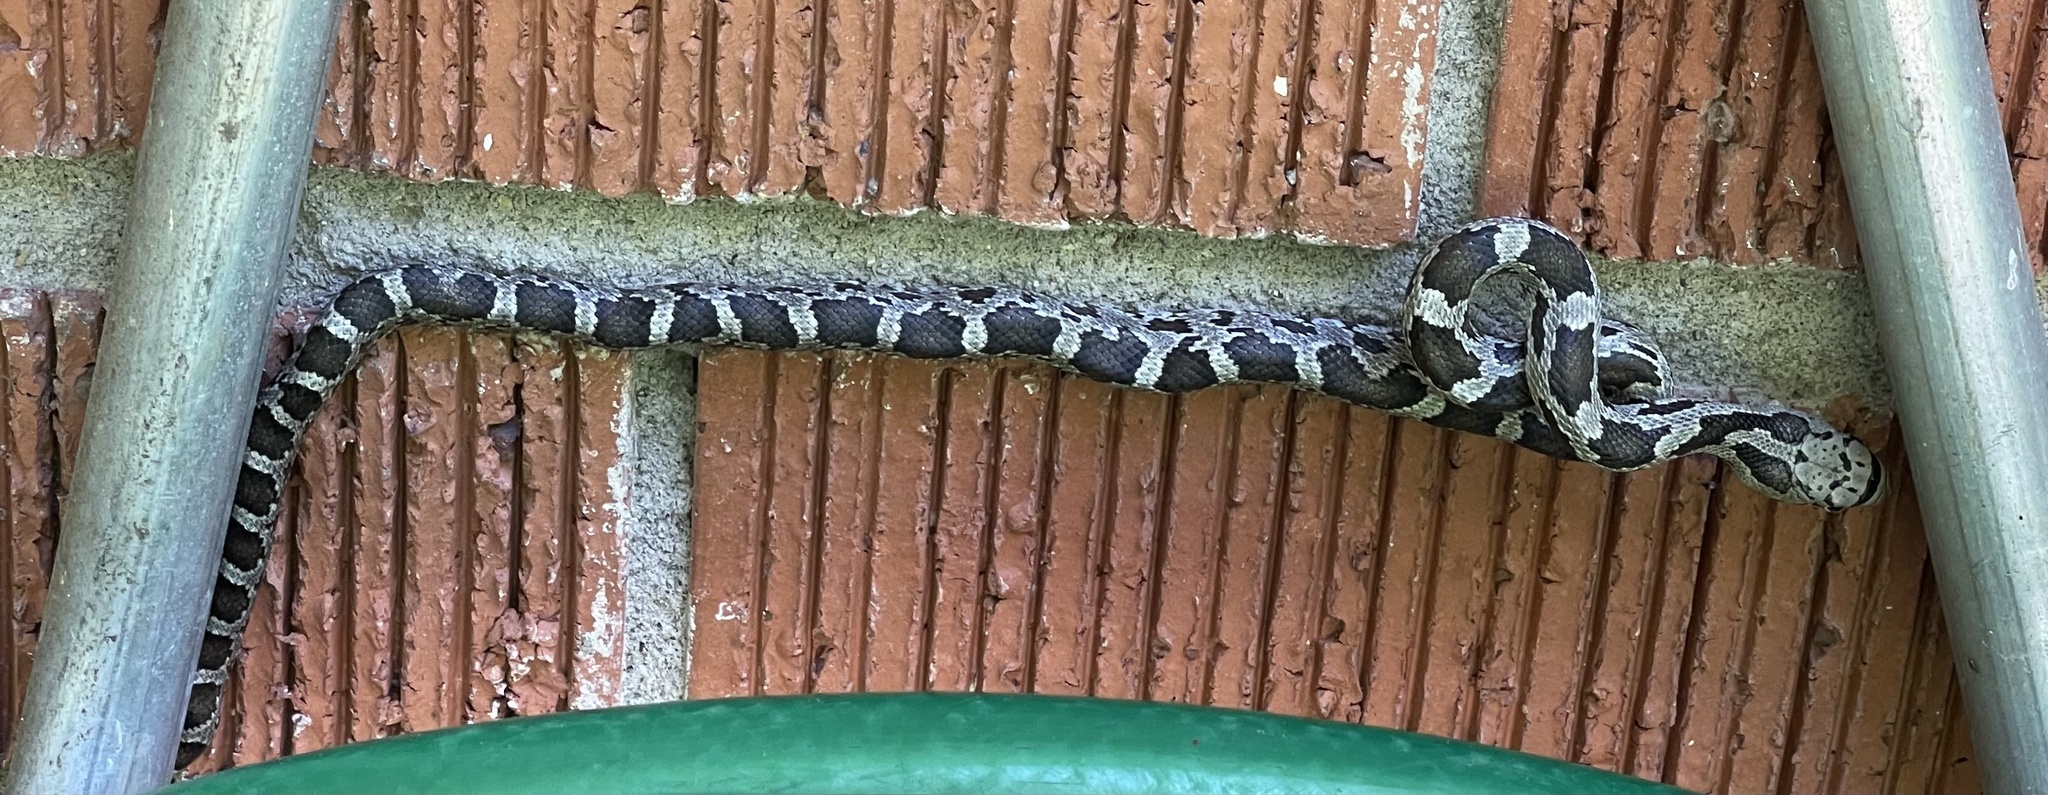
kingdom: Animalia
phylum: Chordata
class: Squamata
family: Colubridae
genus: Pantherophis
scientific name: Pantherophis spiloides
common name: Gray rat snake
